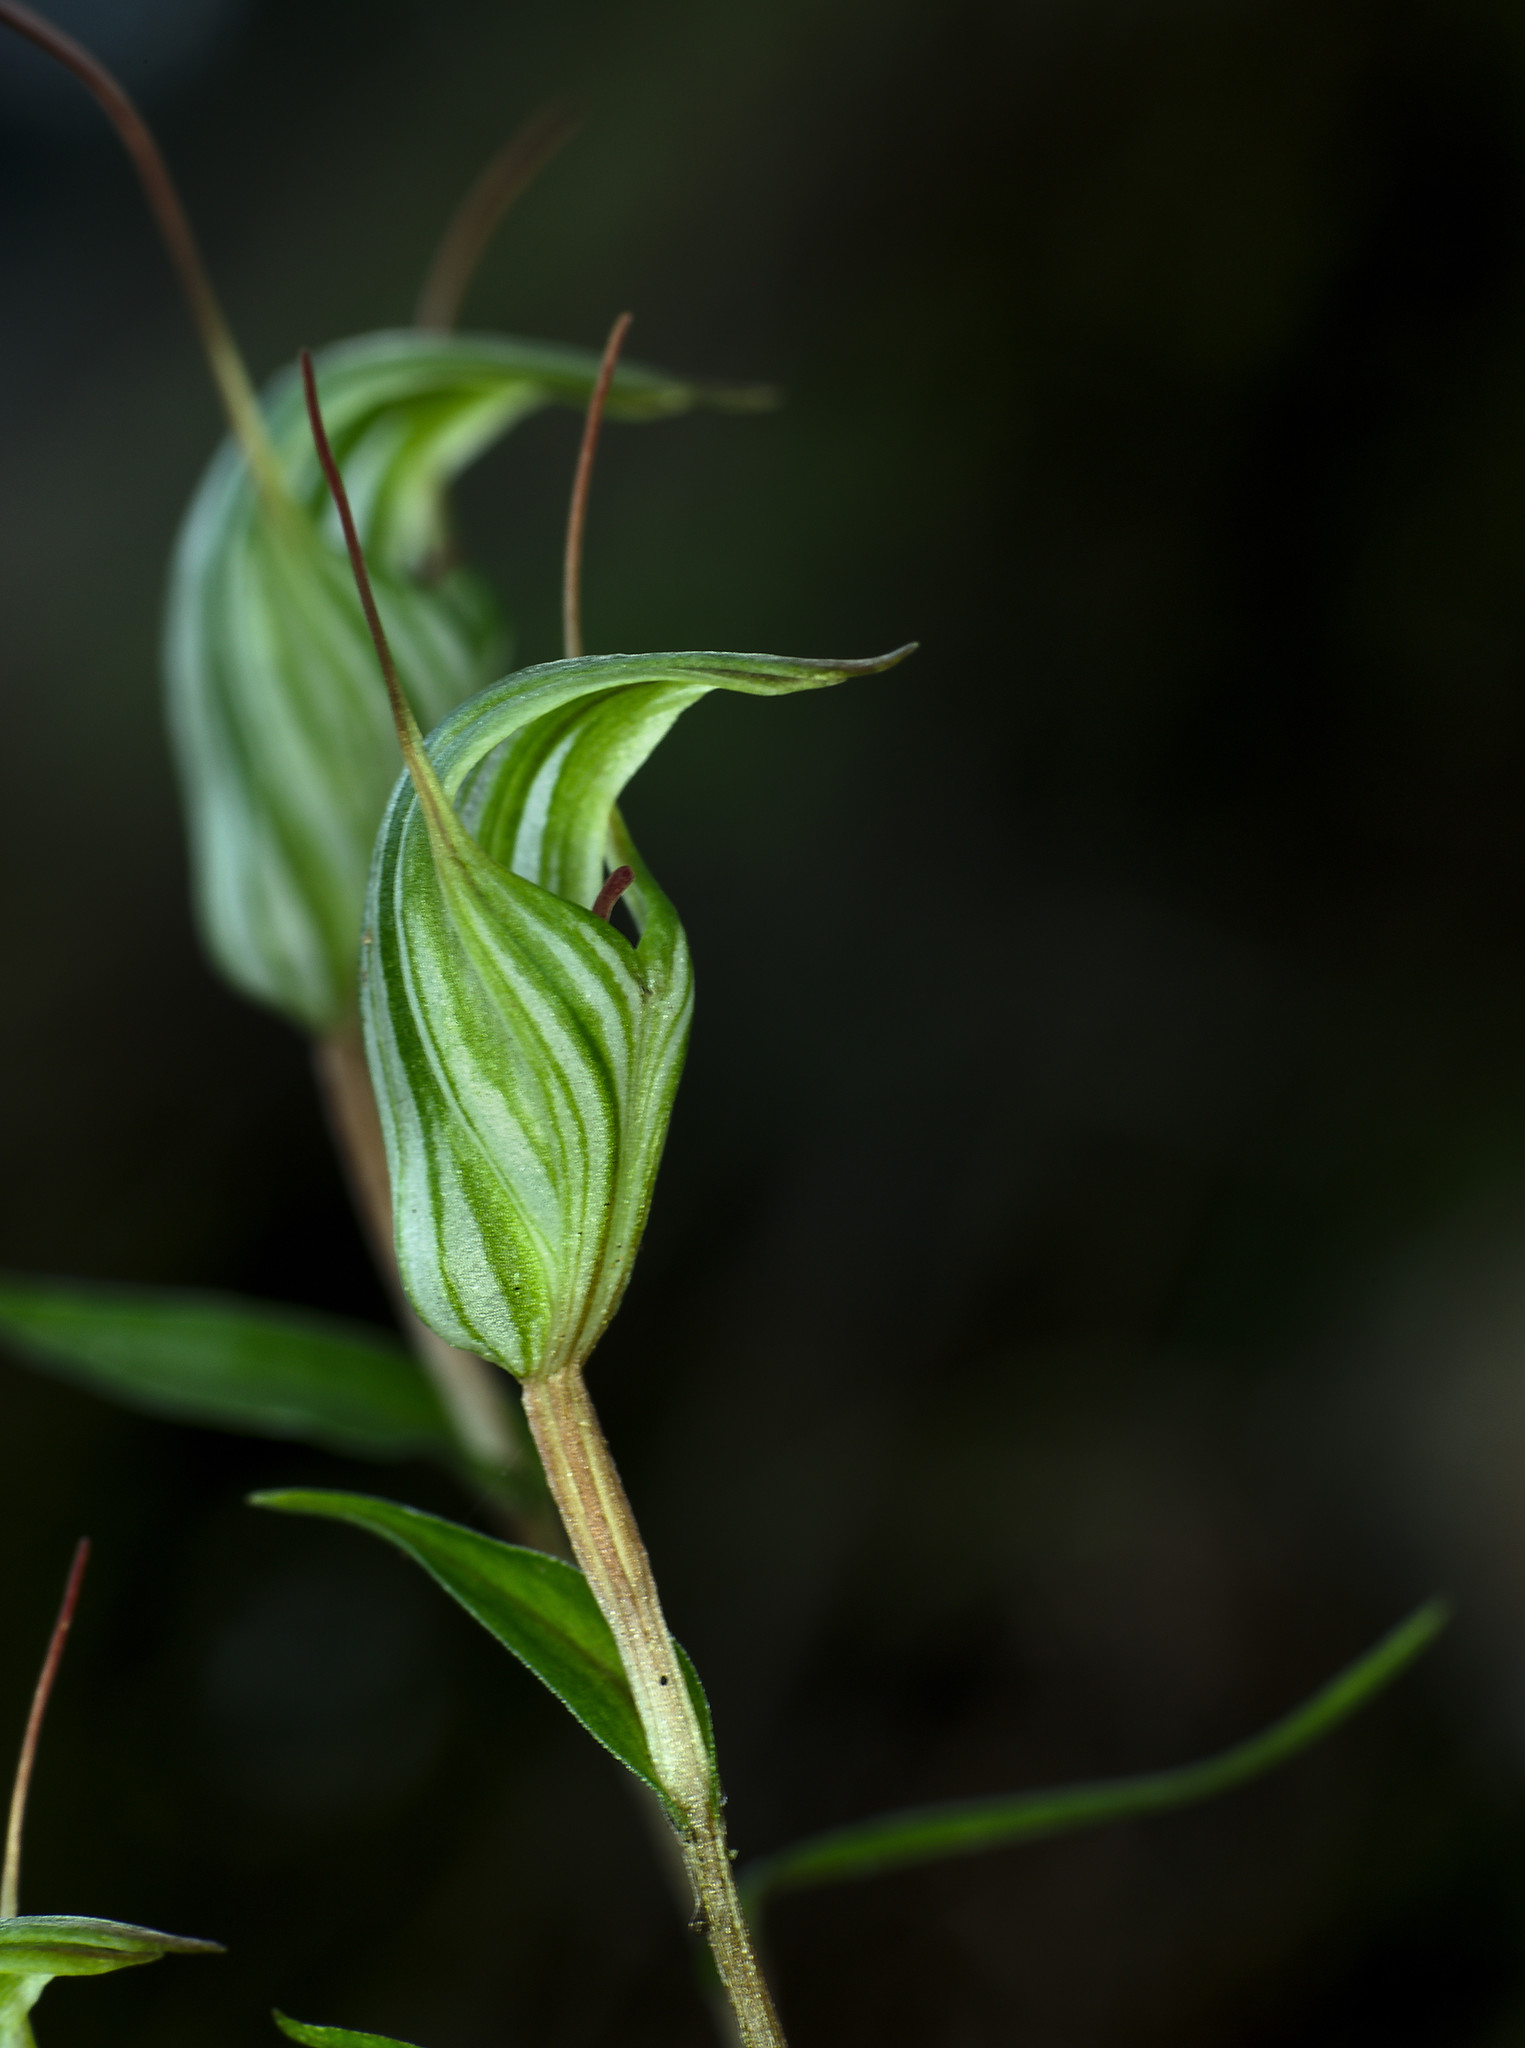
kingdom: Plantae
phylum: Tracheophyta
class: Liliopsida
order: Asparagales
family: Orchidaceae
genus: Pterostylis
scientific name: Pterostylis alobula
